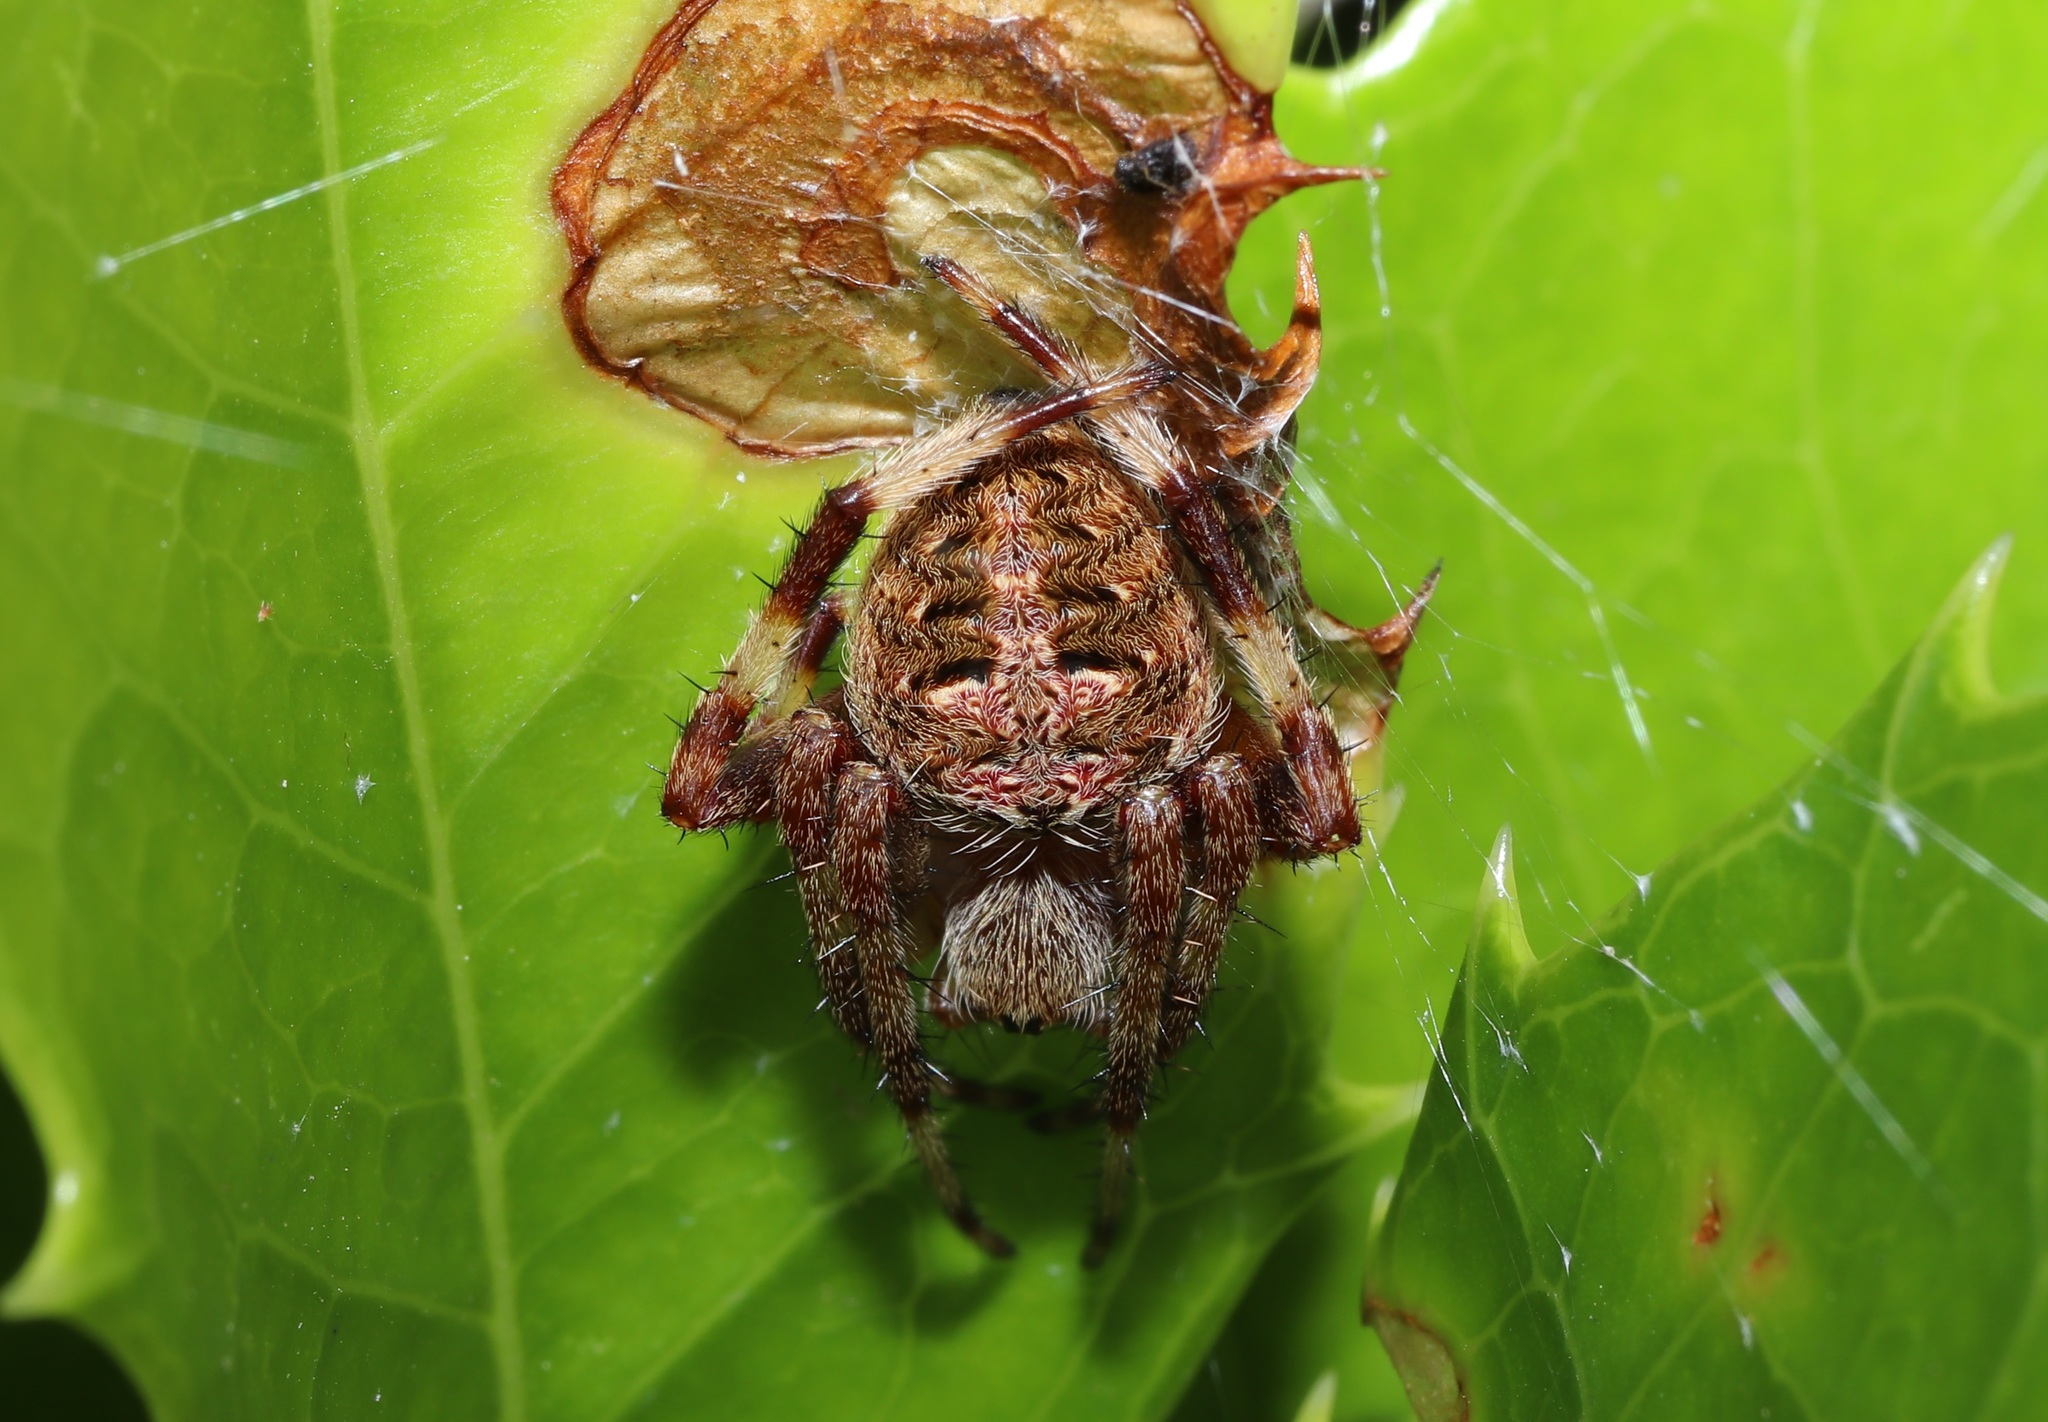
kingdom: Animalia
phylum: Arthropoda
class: Arachnida
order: Araneae
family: Araneidae
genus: Neoscona
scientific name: Neoscona scylla
